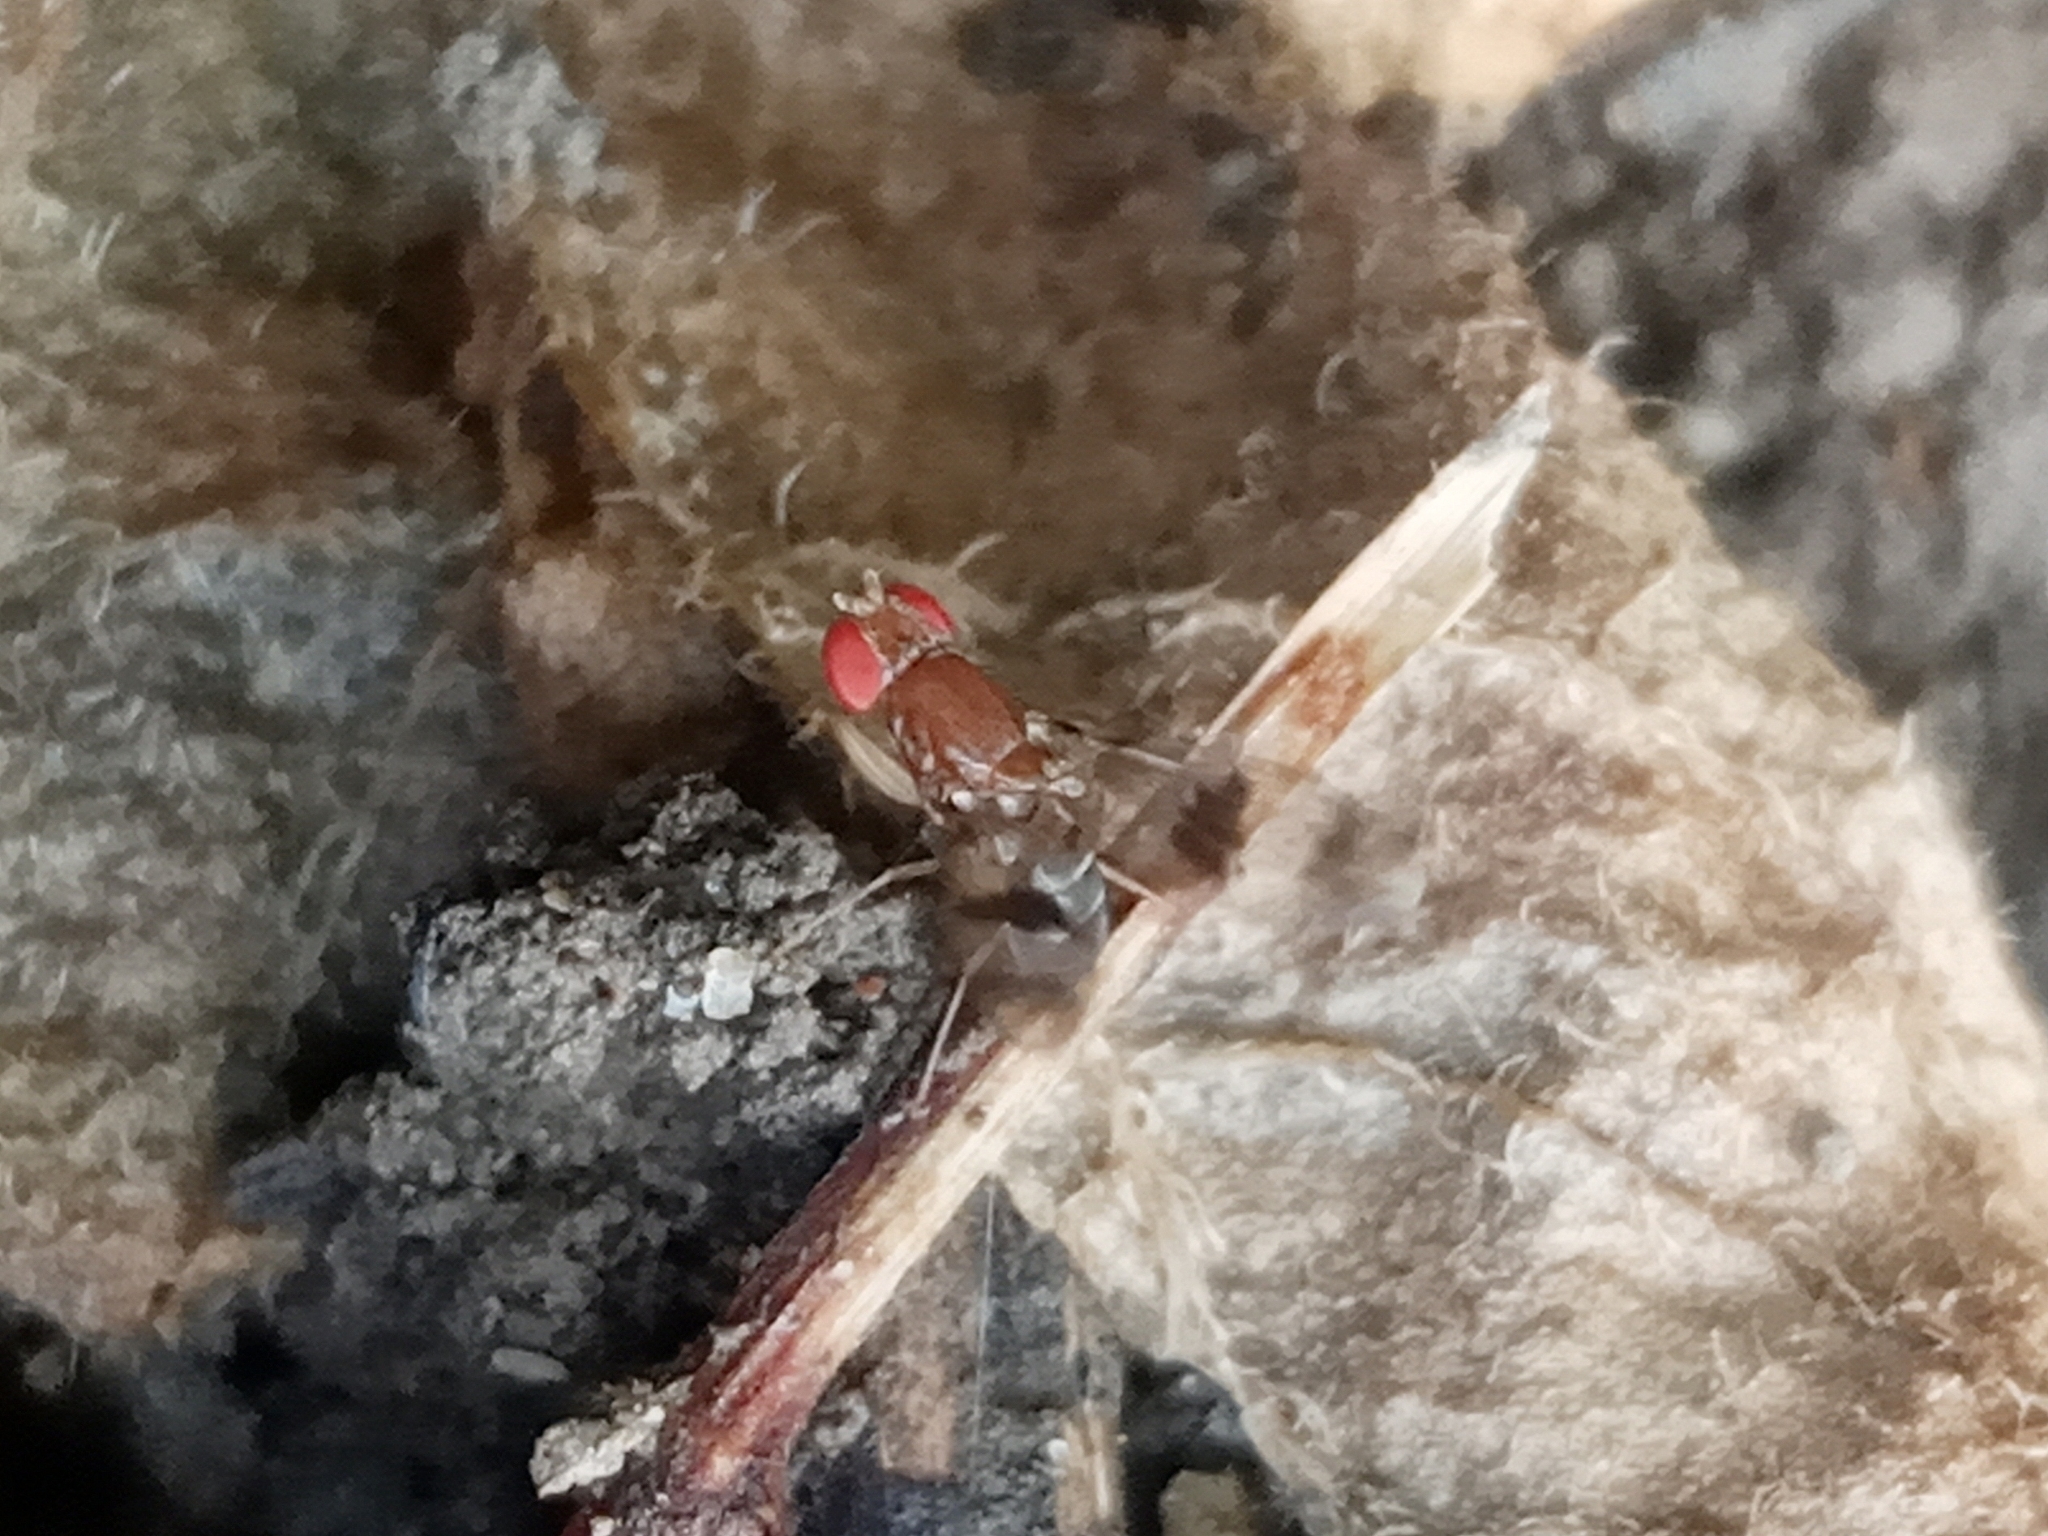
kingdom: Animalia
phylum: Arthropoda
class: Insecta
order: Diptera
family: Drosophilidae
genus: Chymomyza
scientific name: Chymomyza amoena
